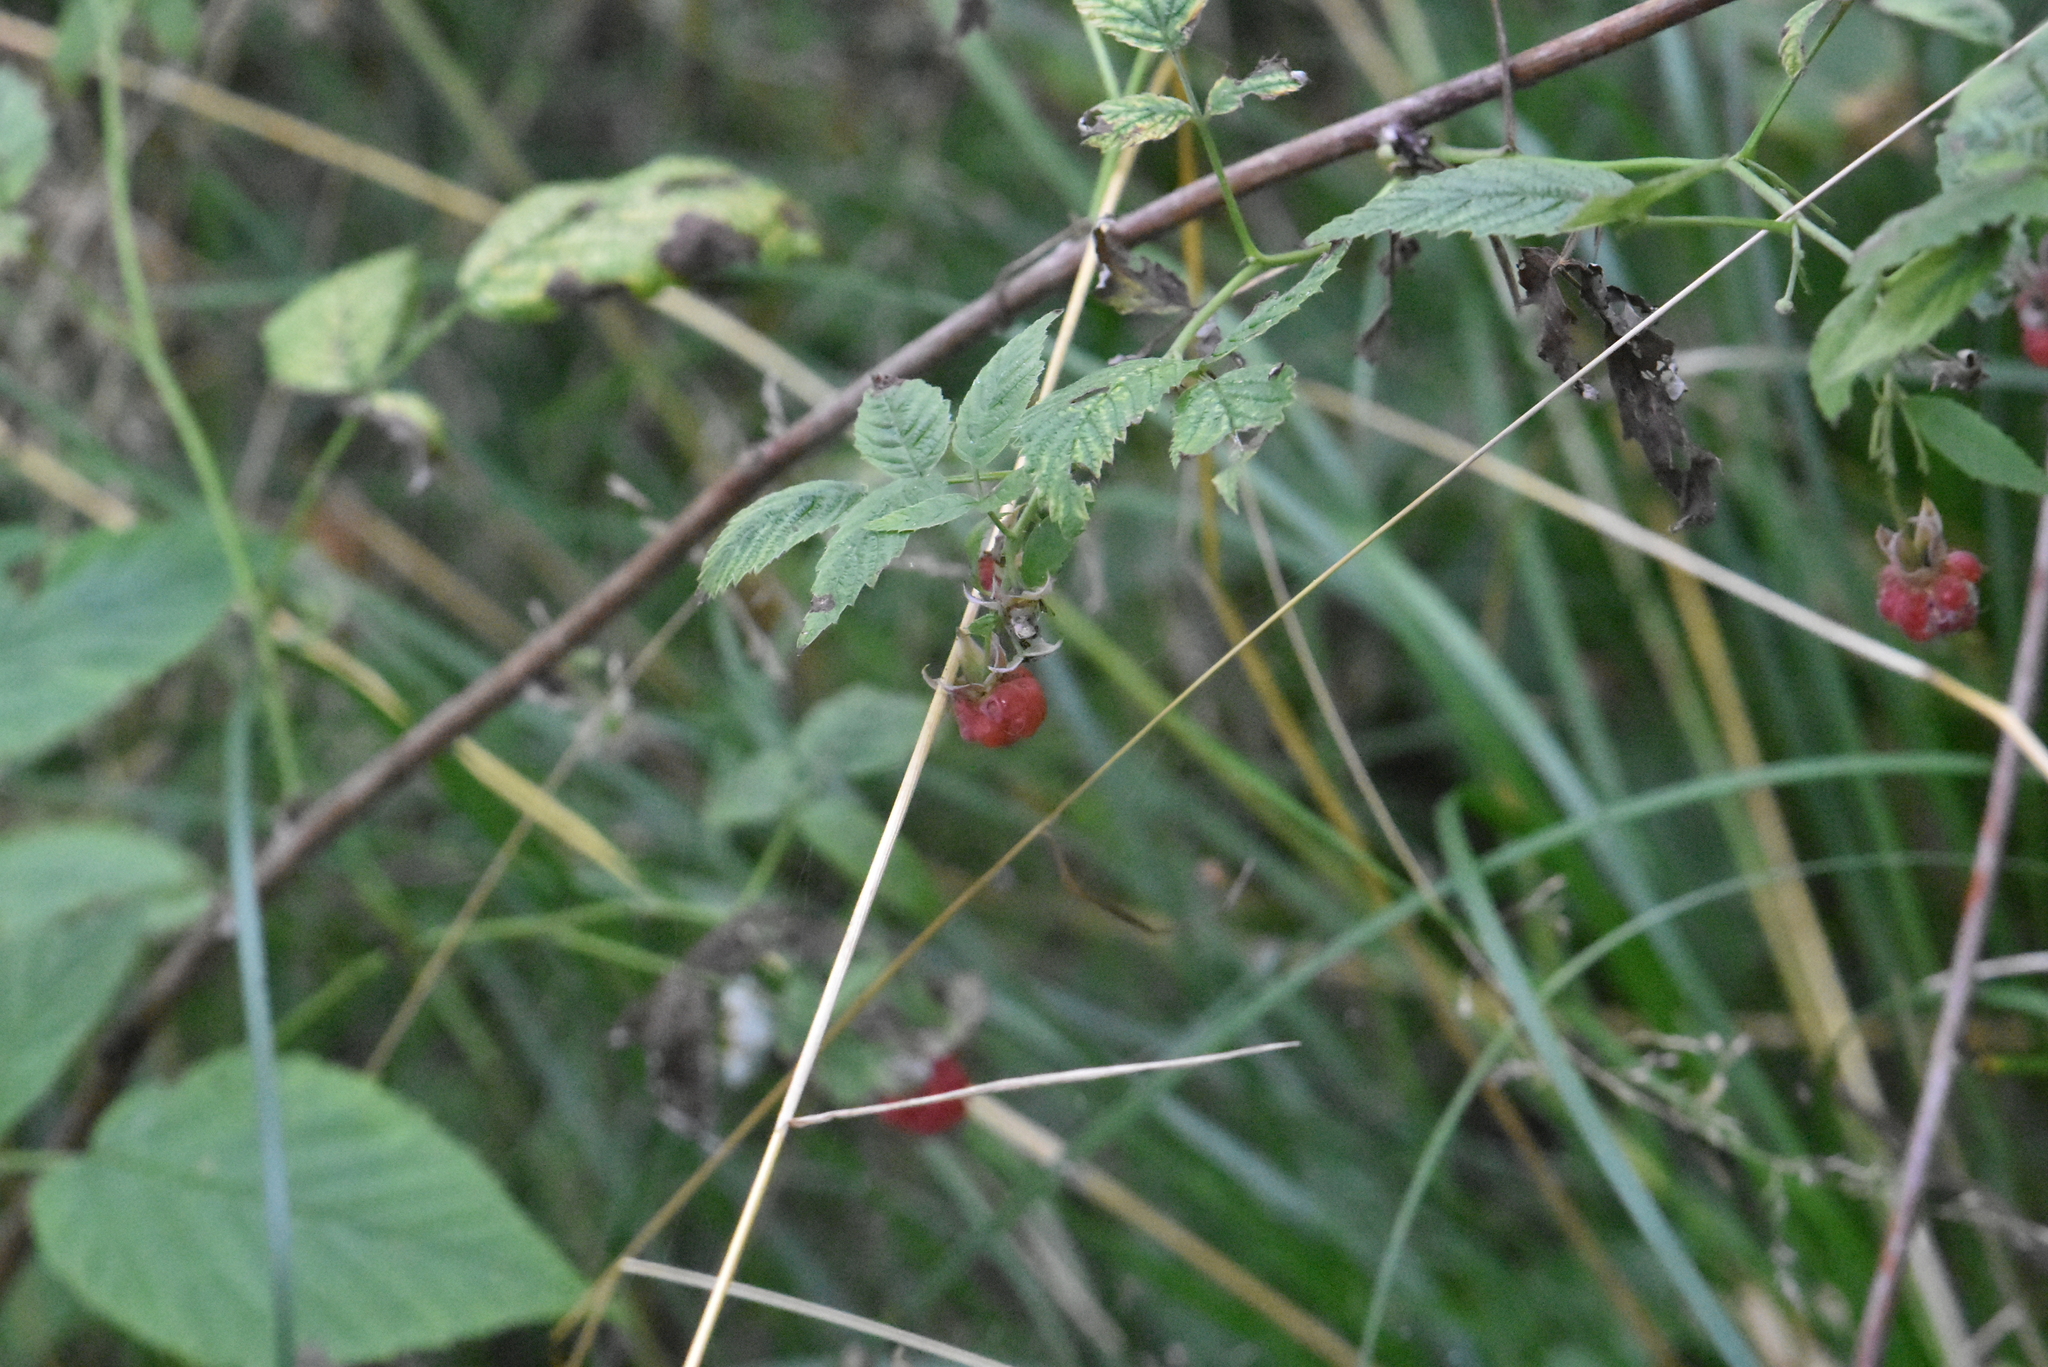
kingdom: Plantae
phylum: Tracheophyta
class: Magnoliopsida
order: Rosales
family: Rosaceae
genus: Rubus
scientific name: Rubus idaeus
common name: Raspberry
